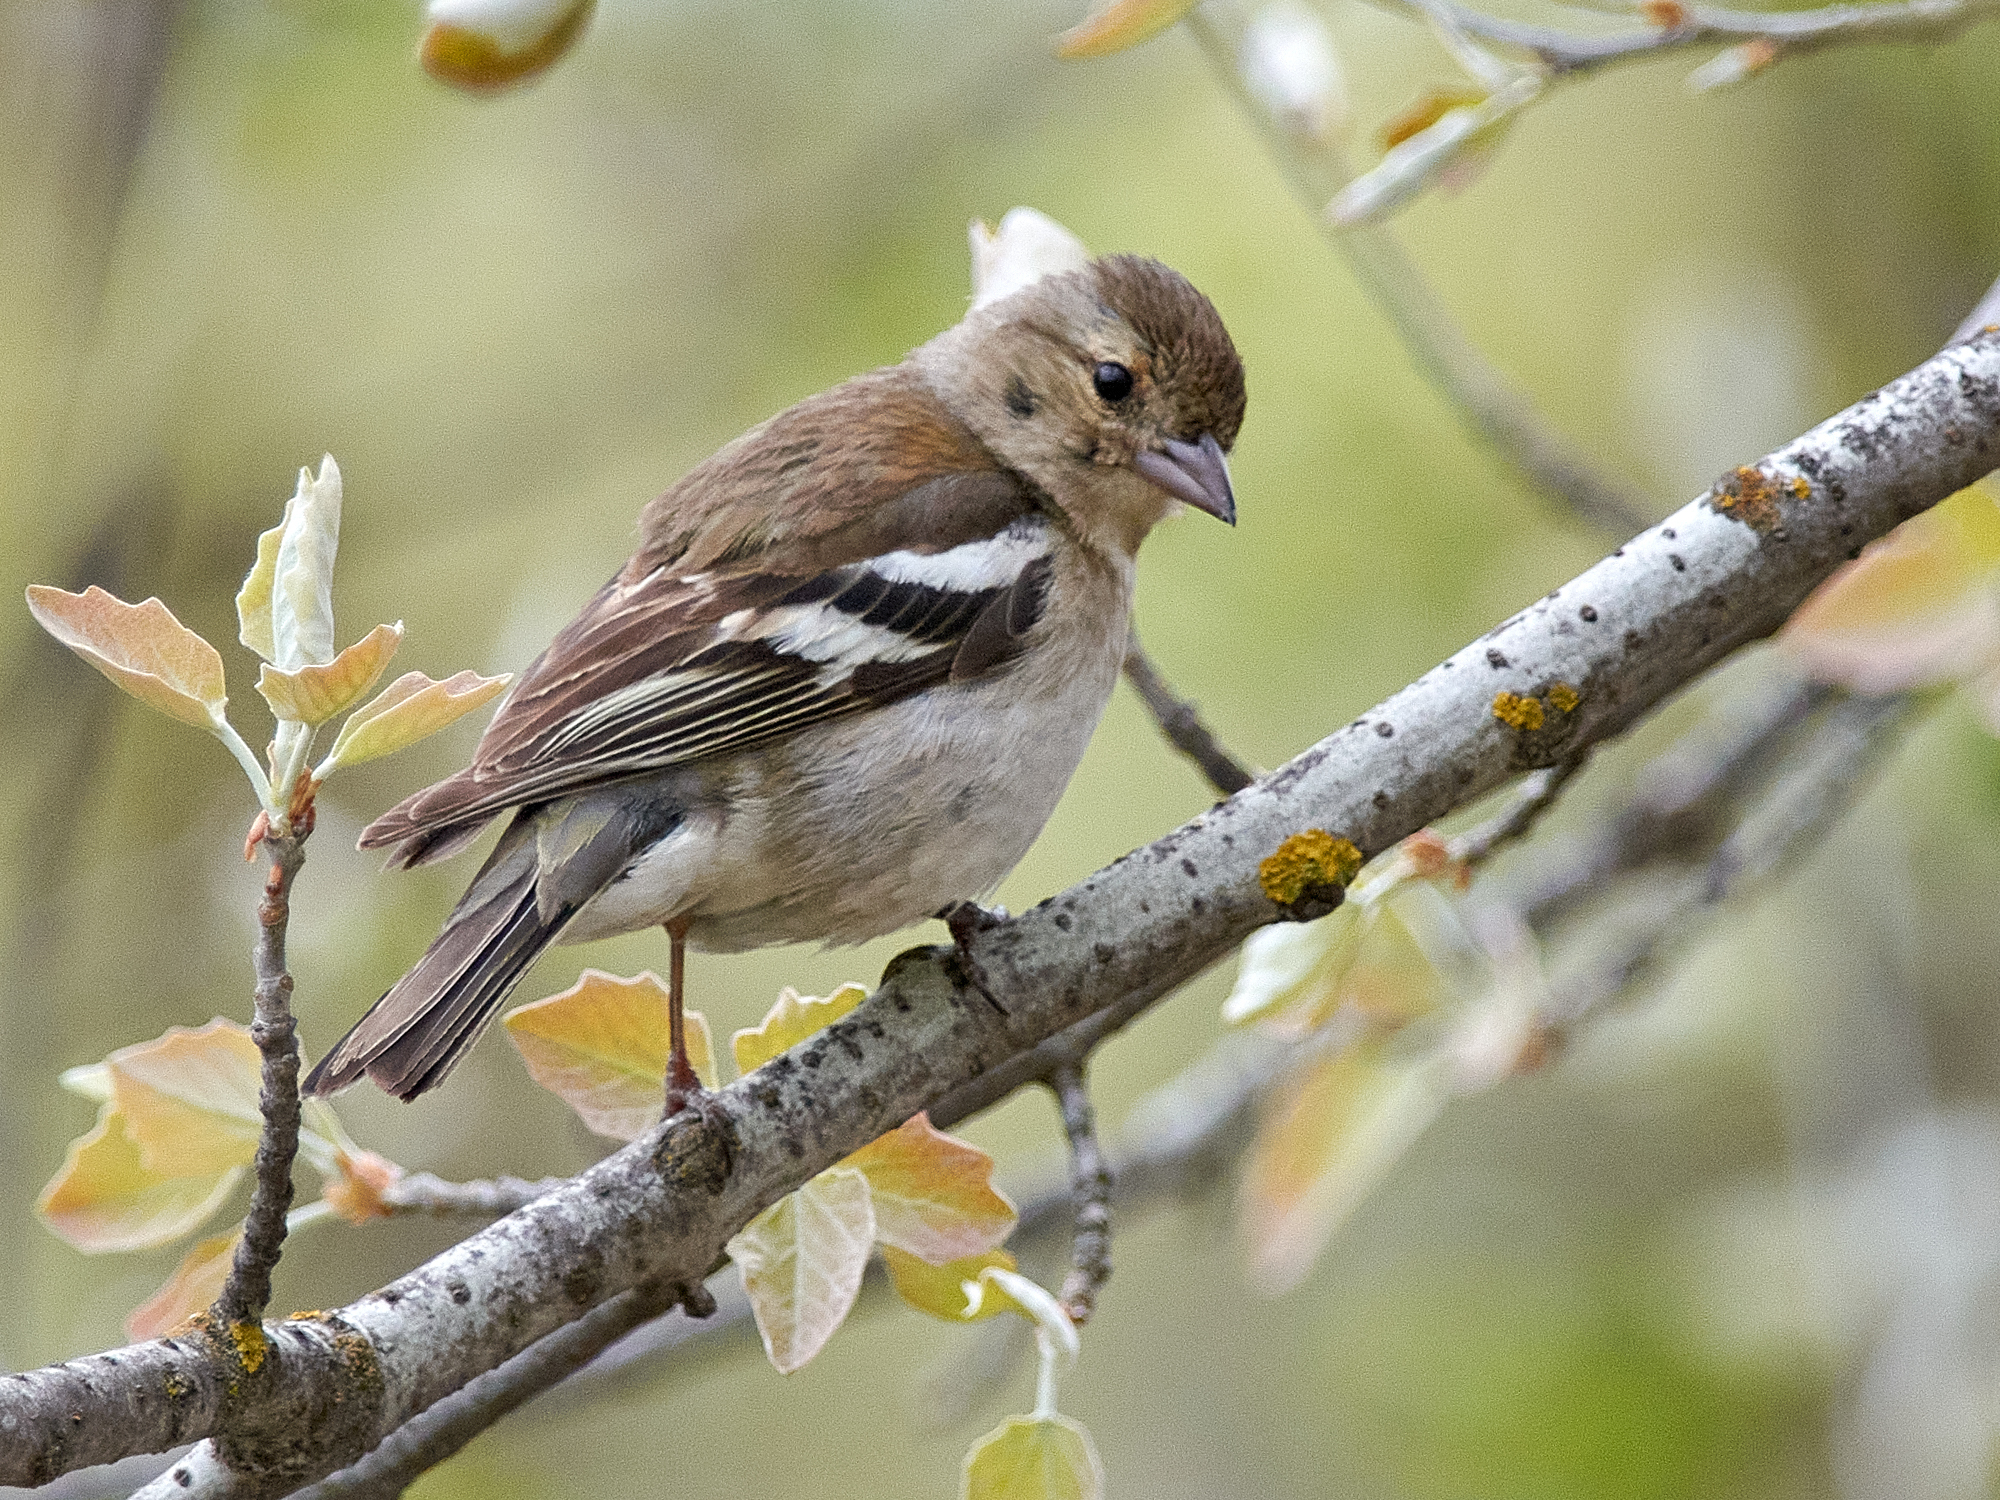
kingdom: Animalia
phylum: Chordata
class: Aves
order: Passeriformes
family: Fringillidae
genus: Fringilla
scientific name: Fringilla coelebs
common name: Common chaffinch
